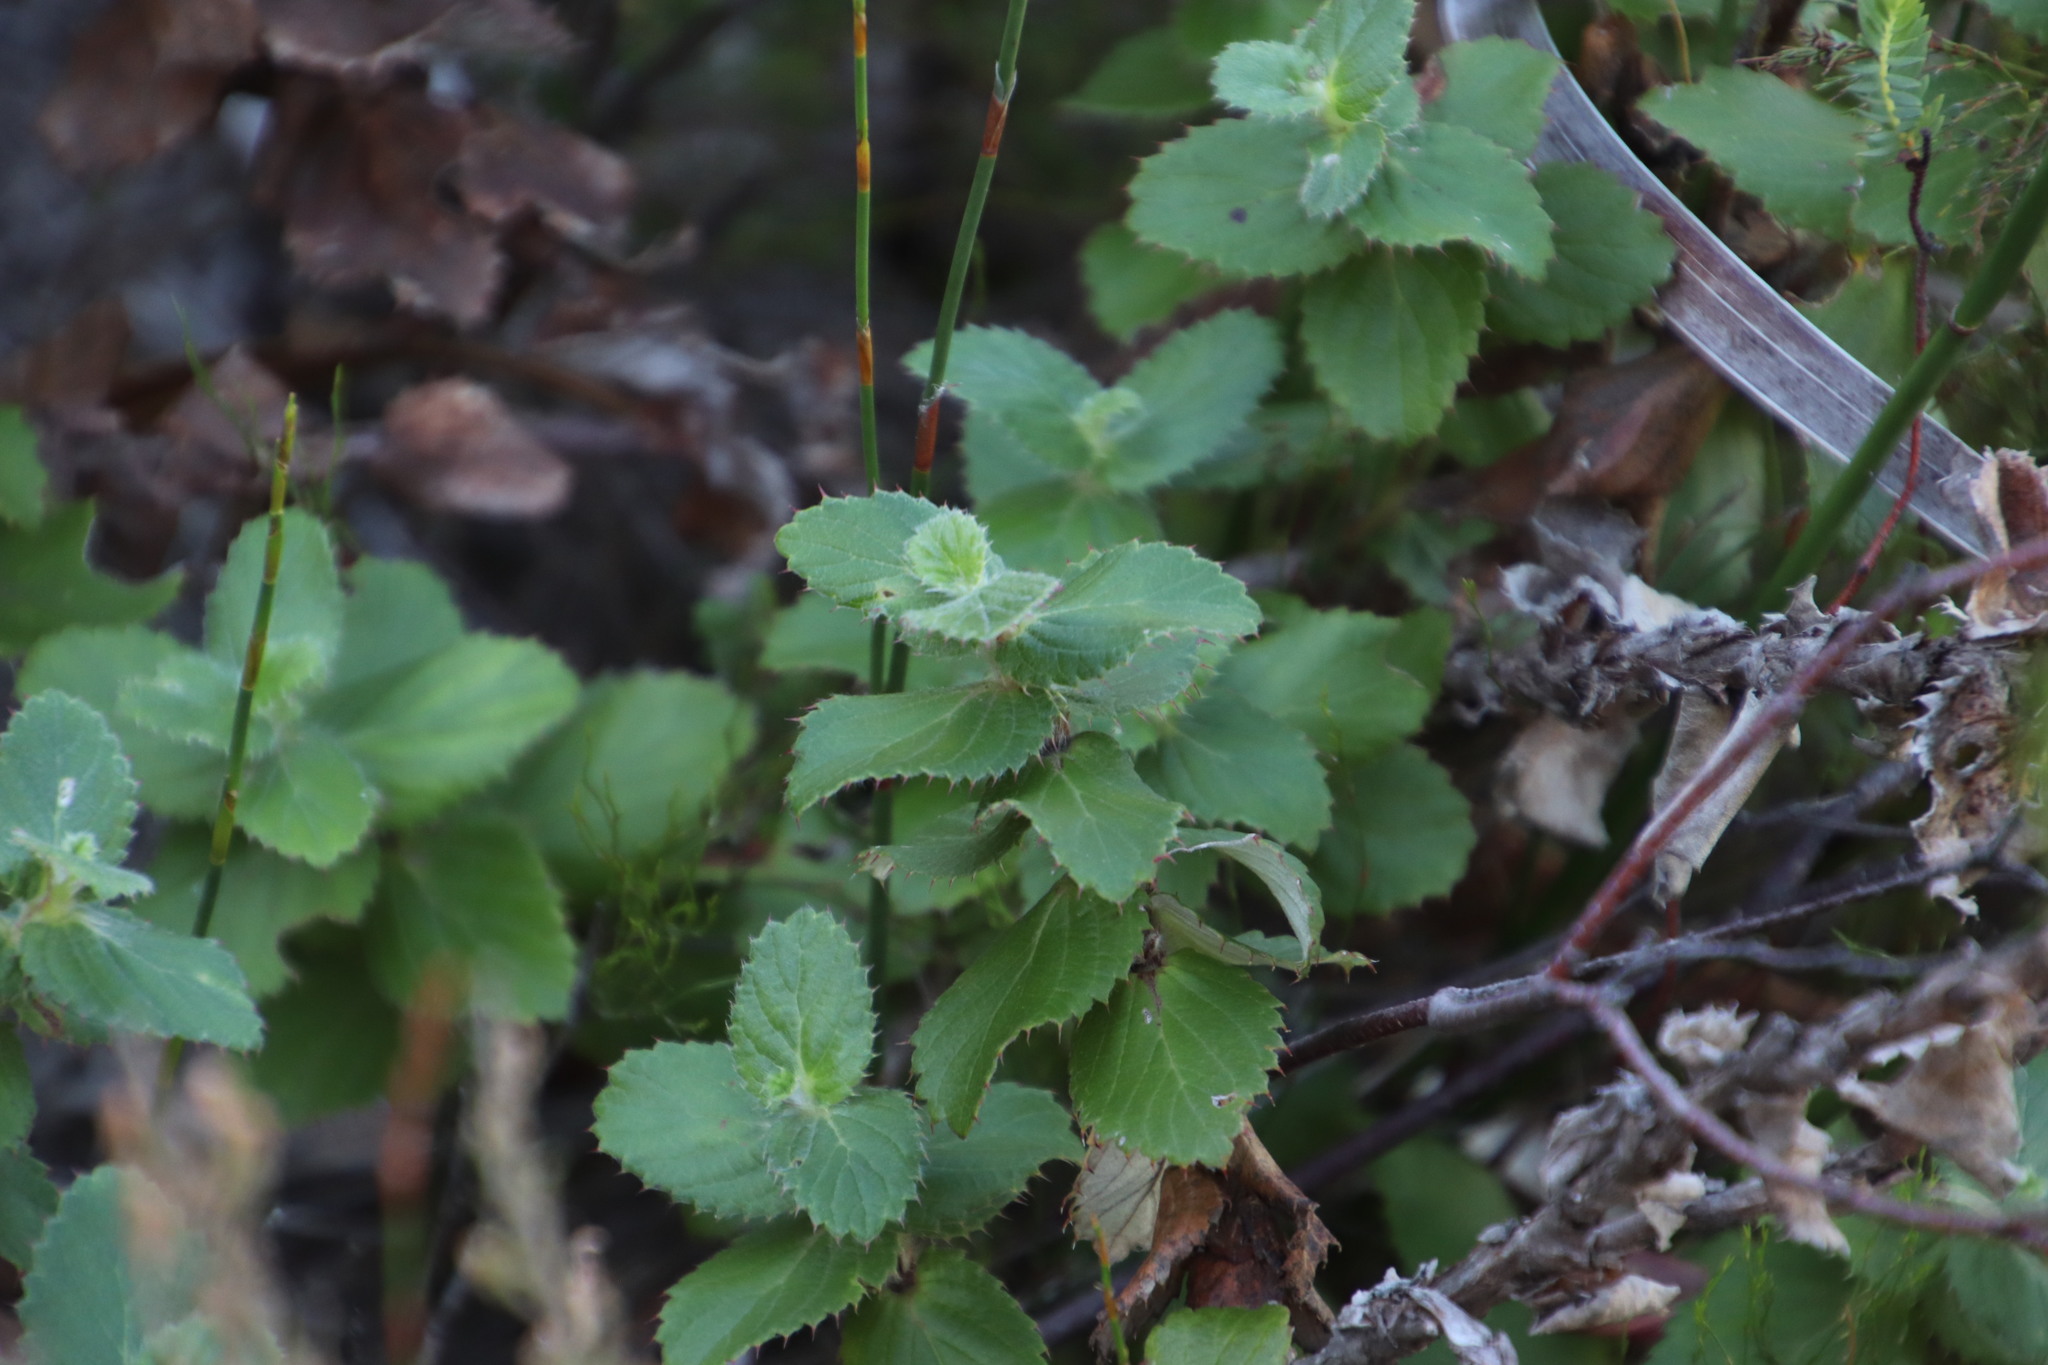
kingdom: Plantae
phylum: Tracheophyta
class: Magnoliopsida
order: Rosales
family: Rosaceae
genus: Cliffortia
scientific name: Cliffortia hirsuta
